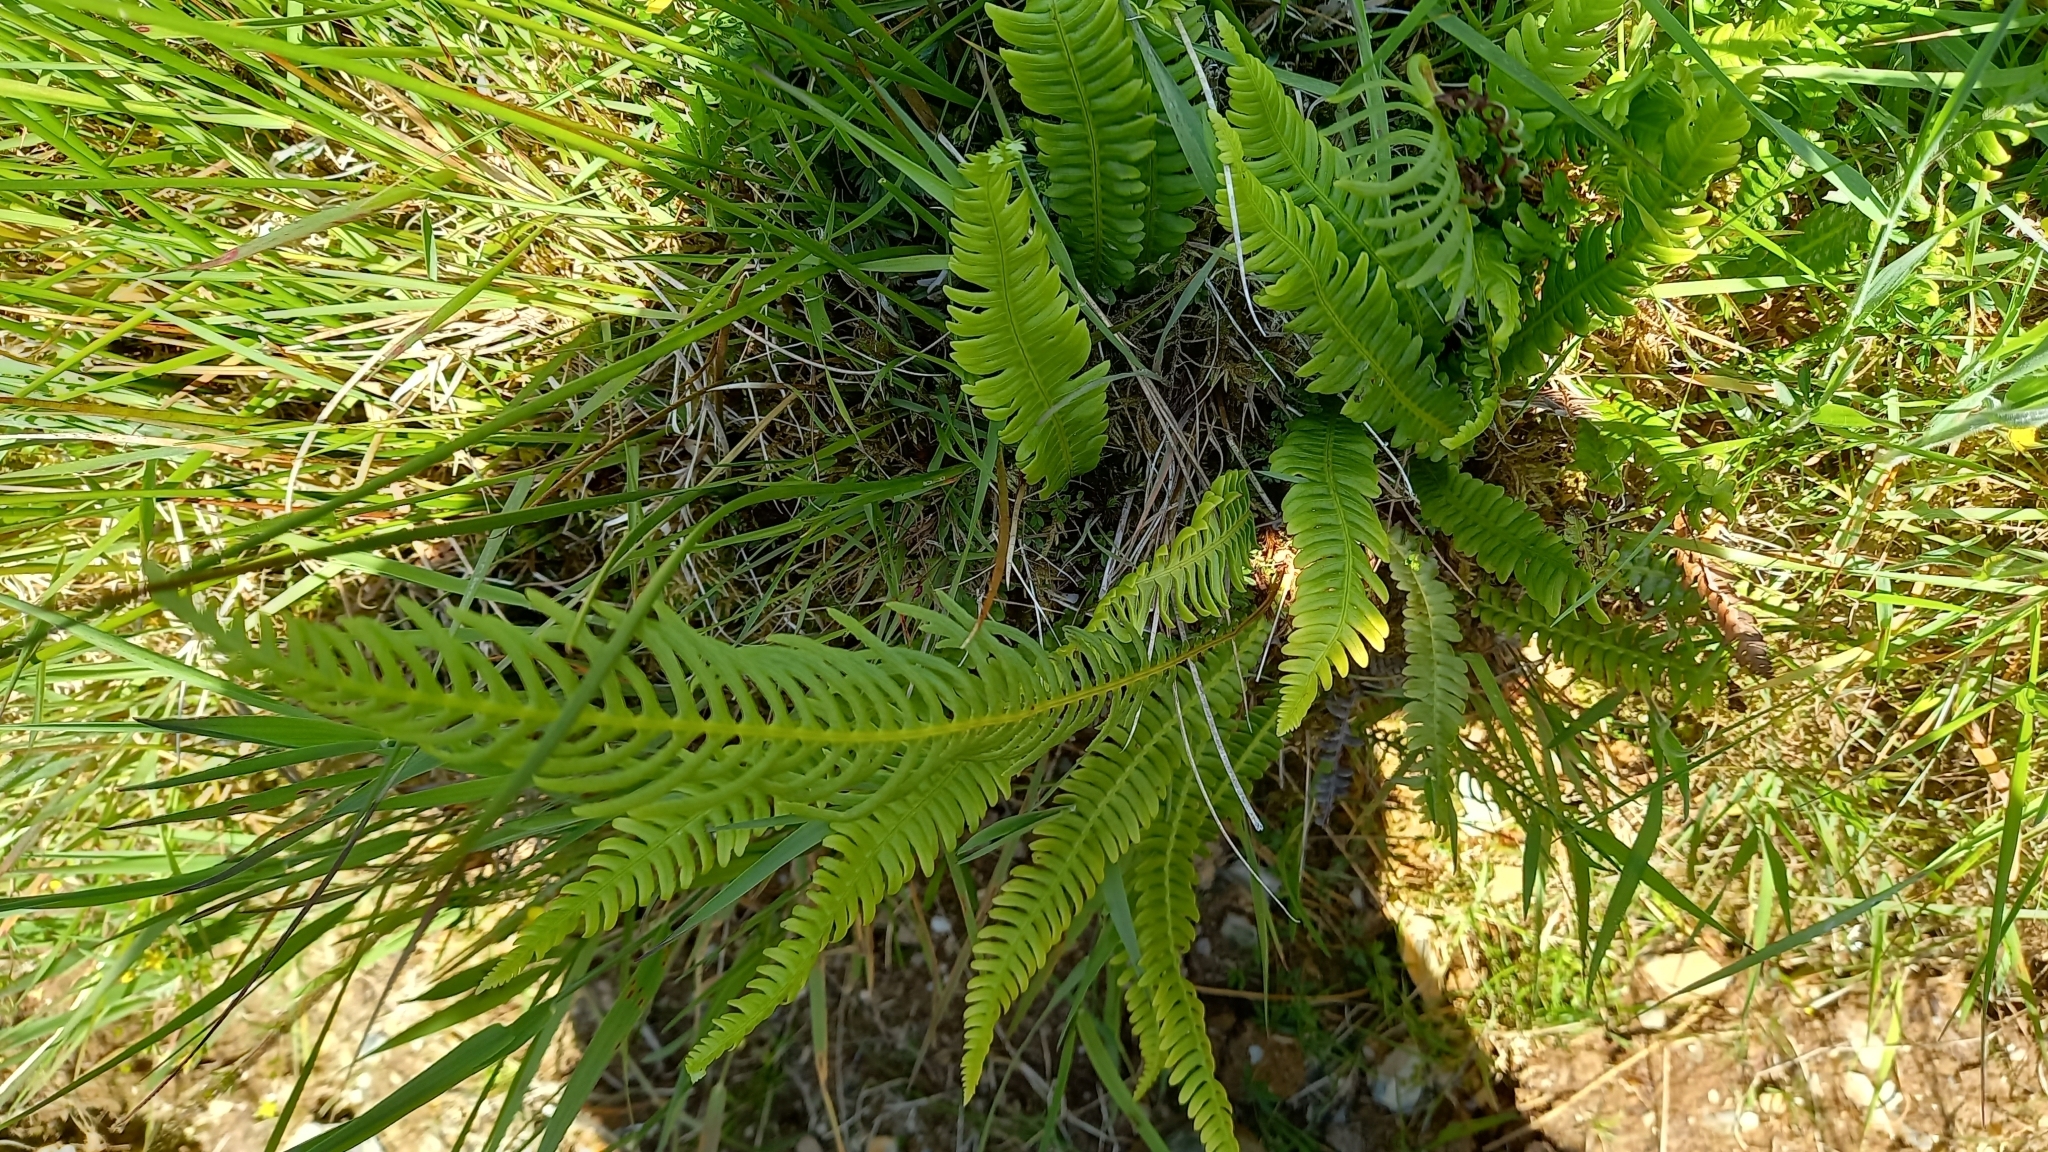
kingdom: Plantae
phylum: Tracheophyta
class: Polypodiopsida
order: Polypodiales
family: Blechnaceae
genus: Struthiopteris
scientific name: Struthiopteris spicant
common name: Deer fern
